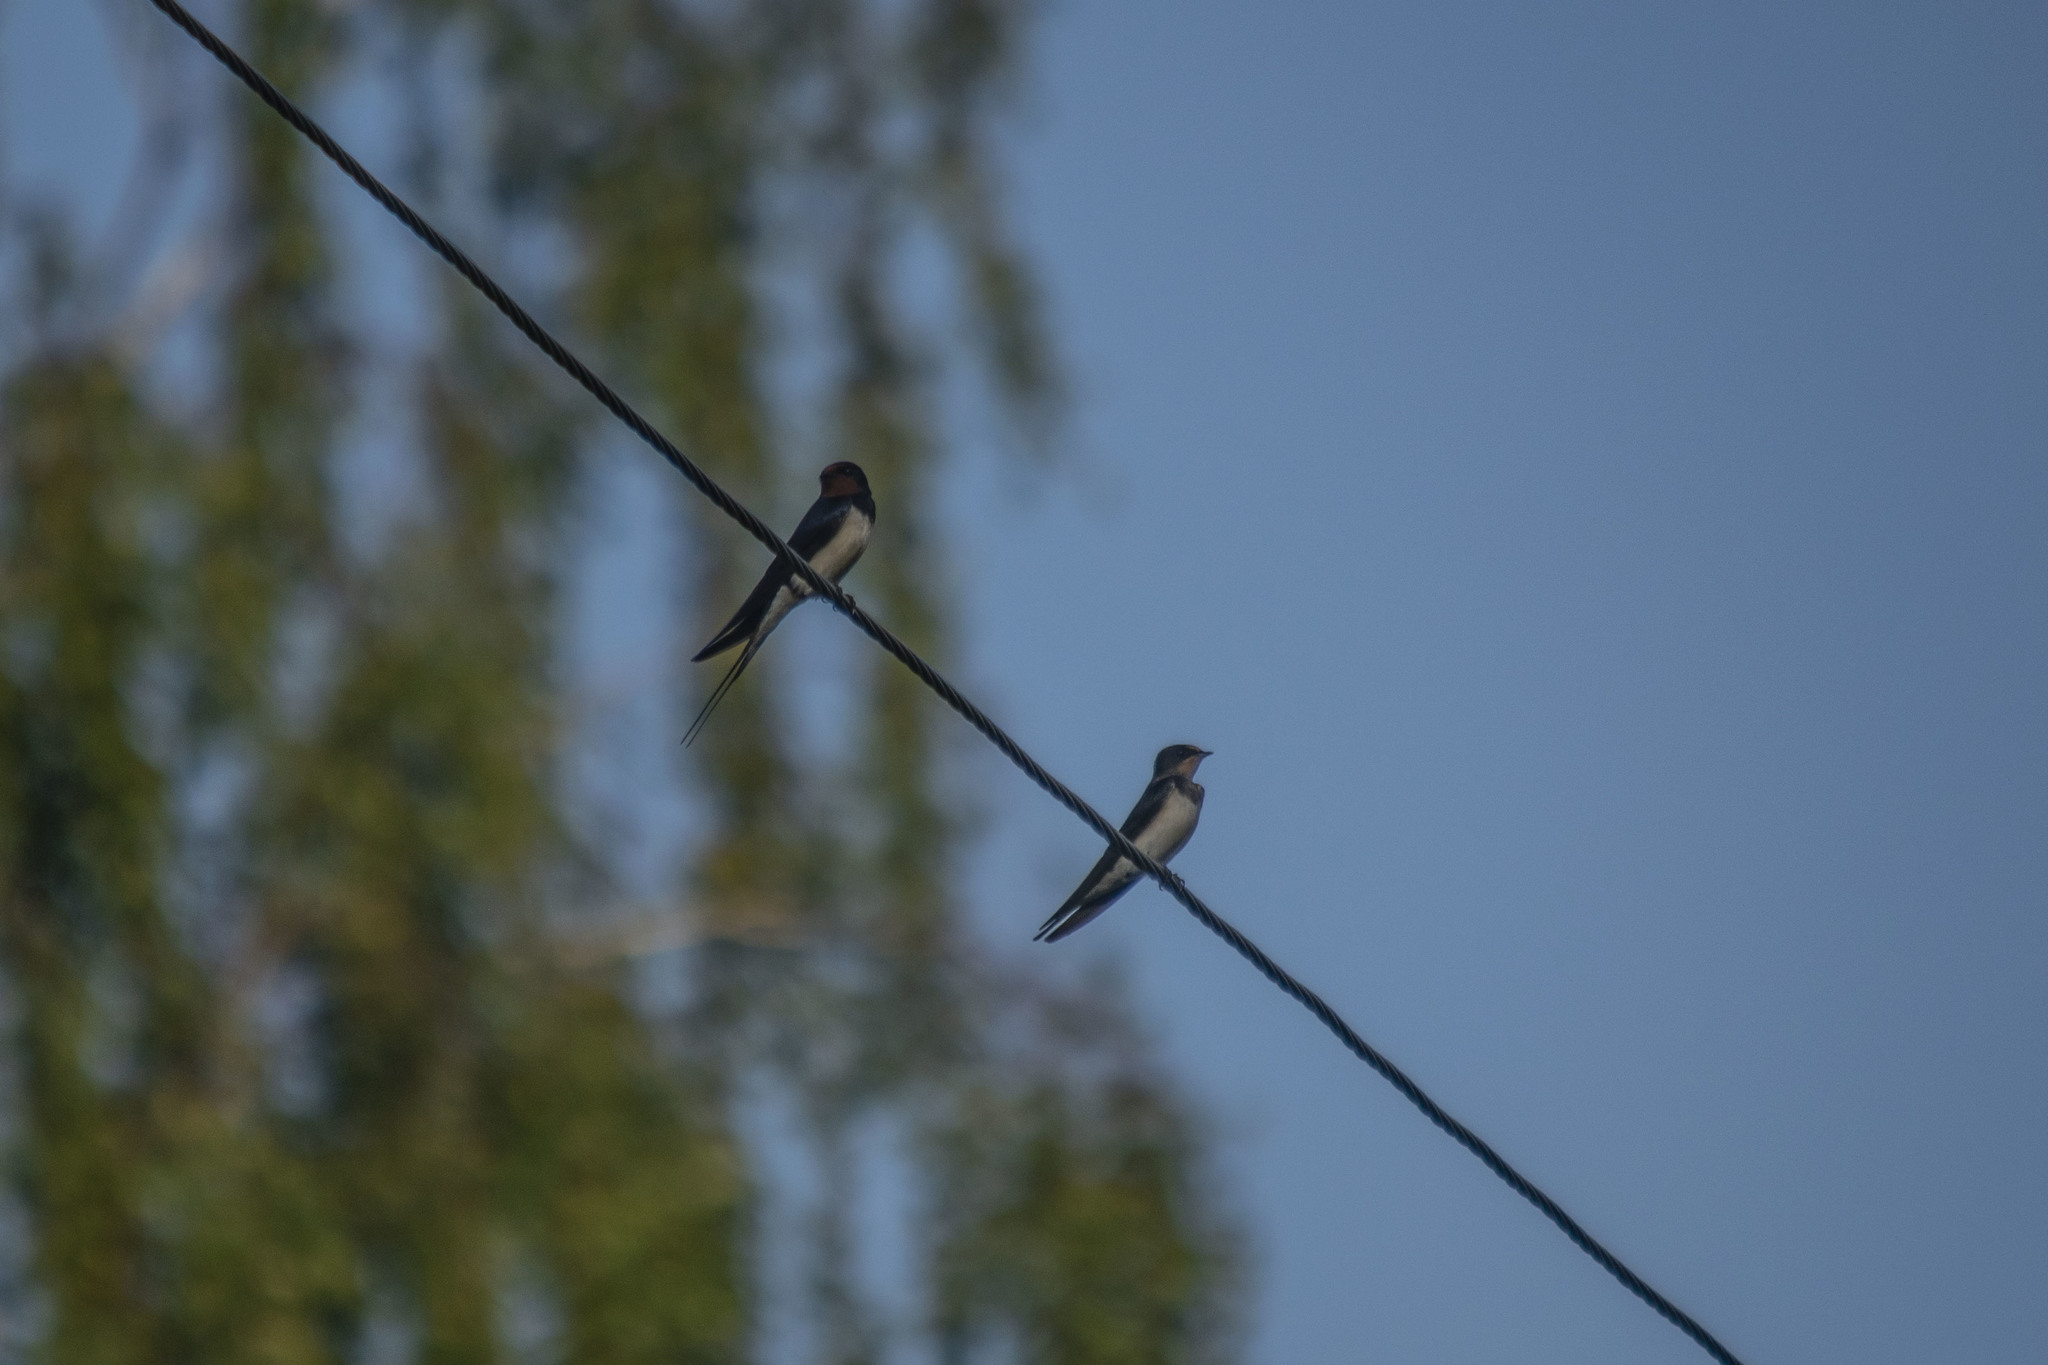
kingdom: Animalia
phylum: Chordata
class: Aves
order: Passeriformes
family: Hirundinidae
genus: Hirundo
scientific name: Hirundo rustica
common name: Barn swallow
